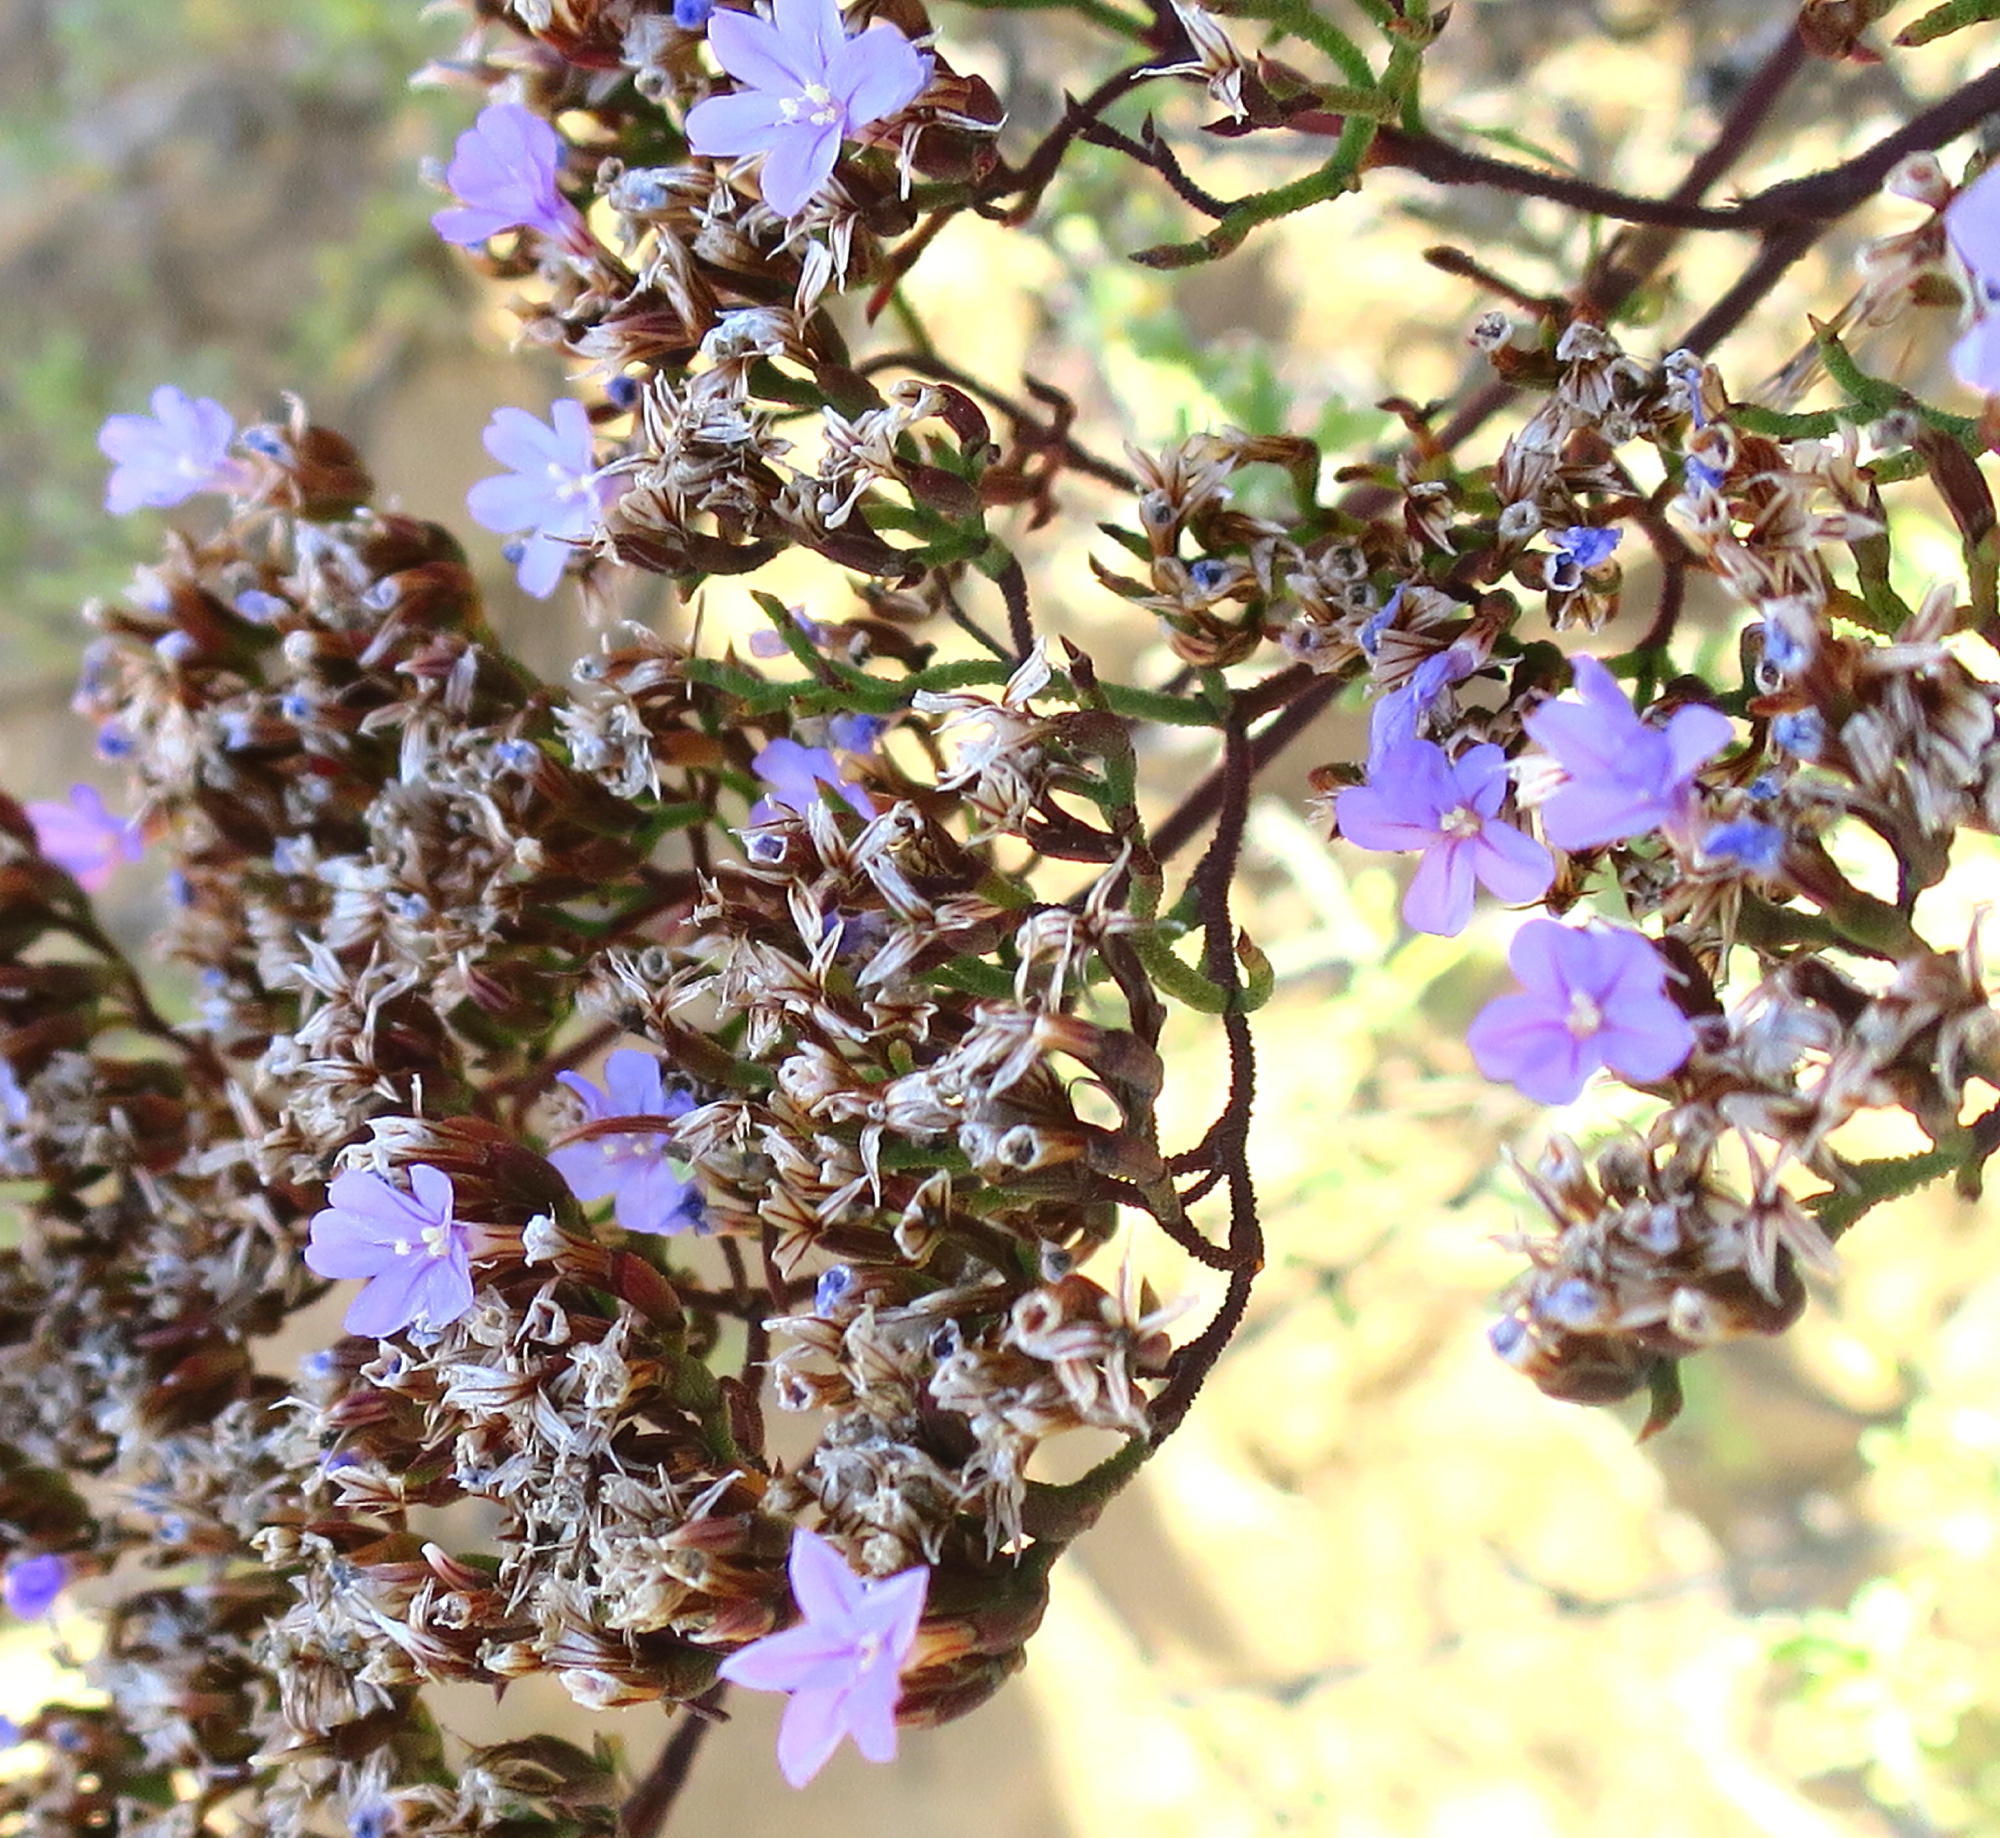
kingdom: Plantae
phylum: Tracheophyta
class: Magnoliopsida
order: Caryophyllales
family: Plumbaginaceae
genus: Limonium
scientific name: Limonium scabrum
